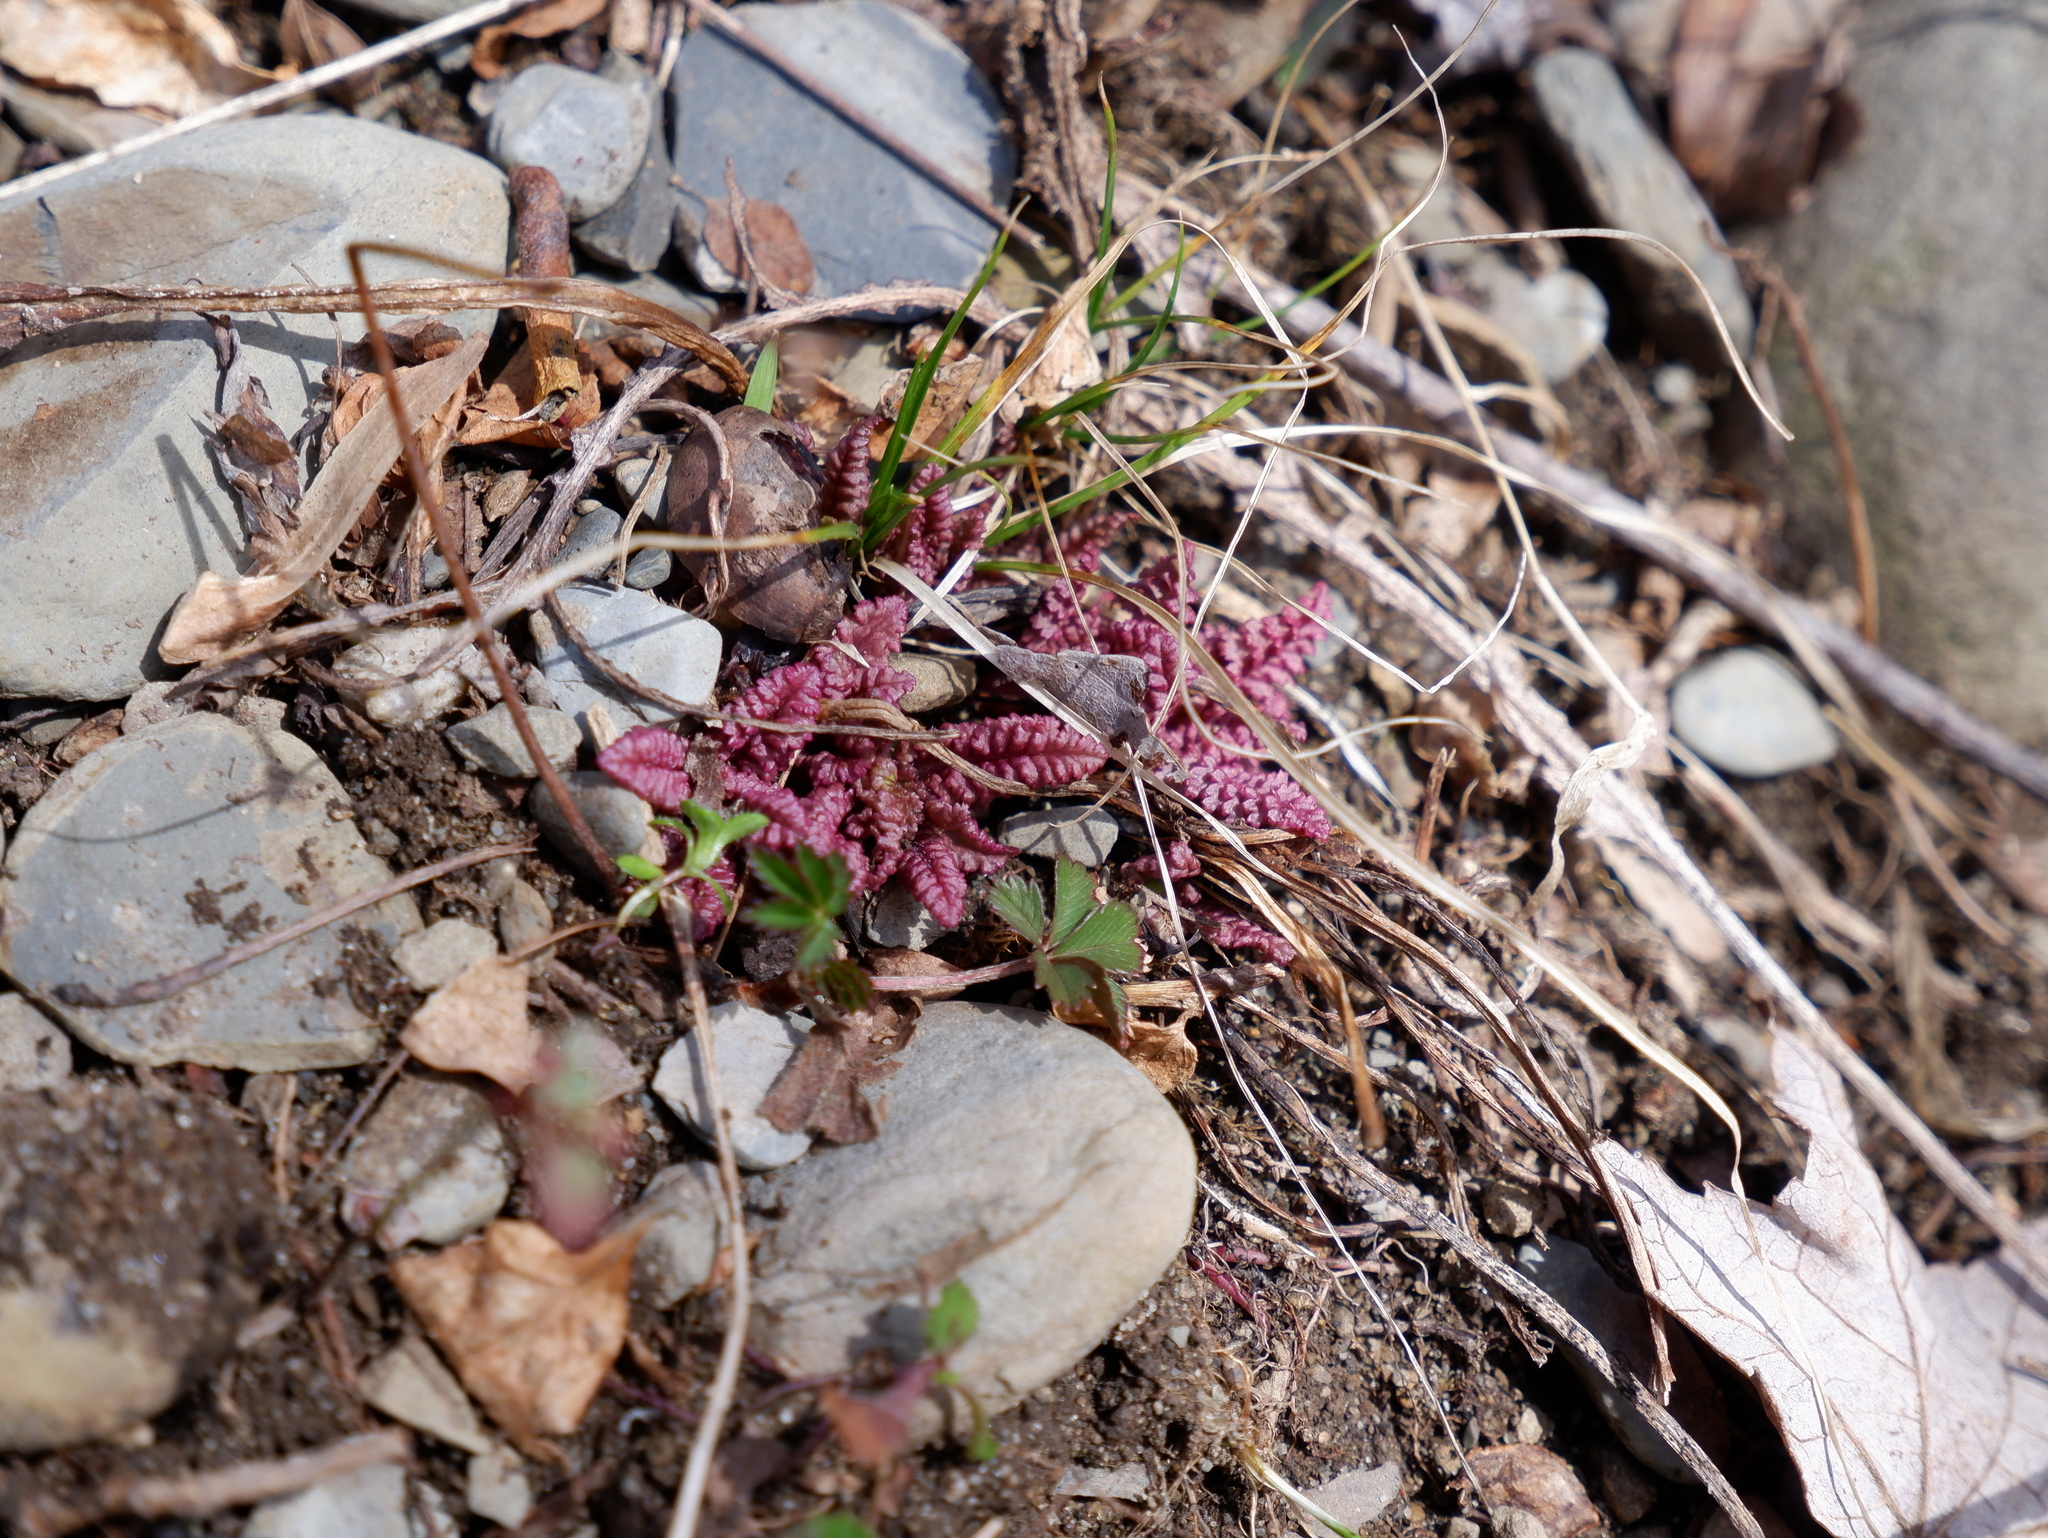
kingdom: Plantae
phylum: Tracheophyta
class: Magnoliopsida
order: Lamiales
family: Orobanchaceae
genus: Pedicularis
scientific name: Pedicularis canadensis
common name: Early lousewort
